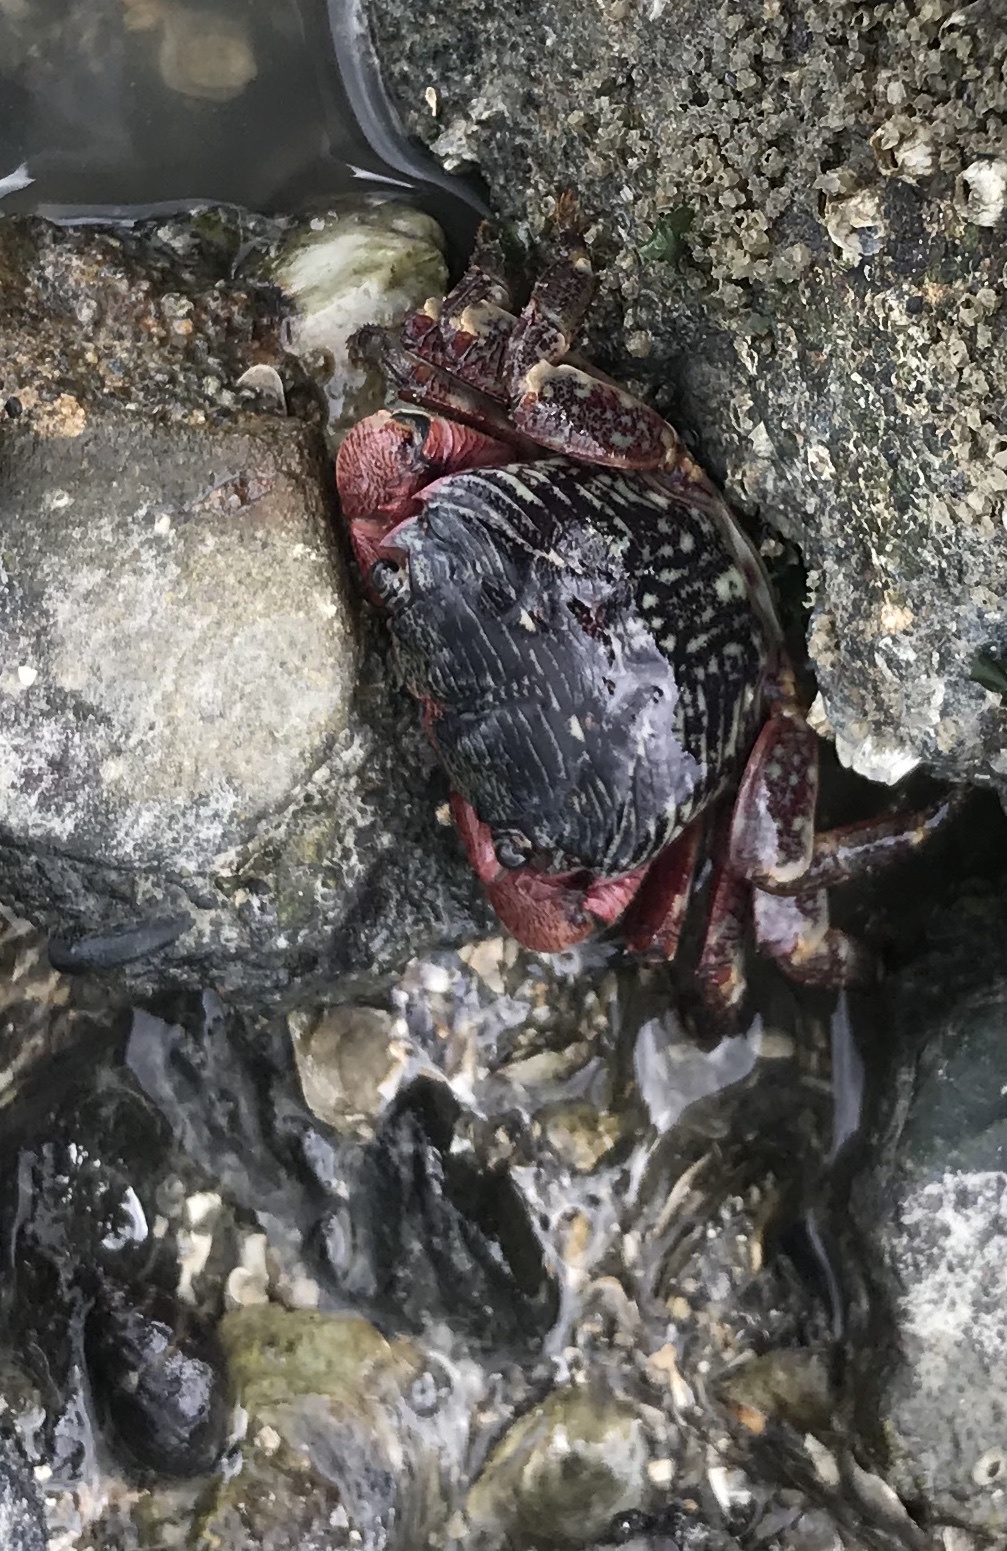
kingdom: Animalia
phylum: Arthropoda
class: Malacostraca
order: Decapoda
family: Grapsidae
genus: Pachygrapsus
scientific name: Pachygrapsus crassipes
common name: Striped shore crab
